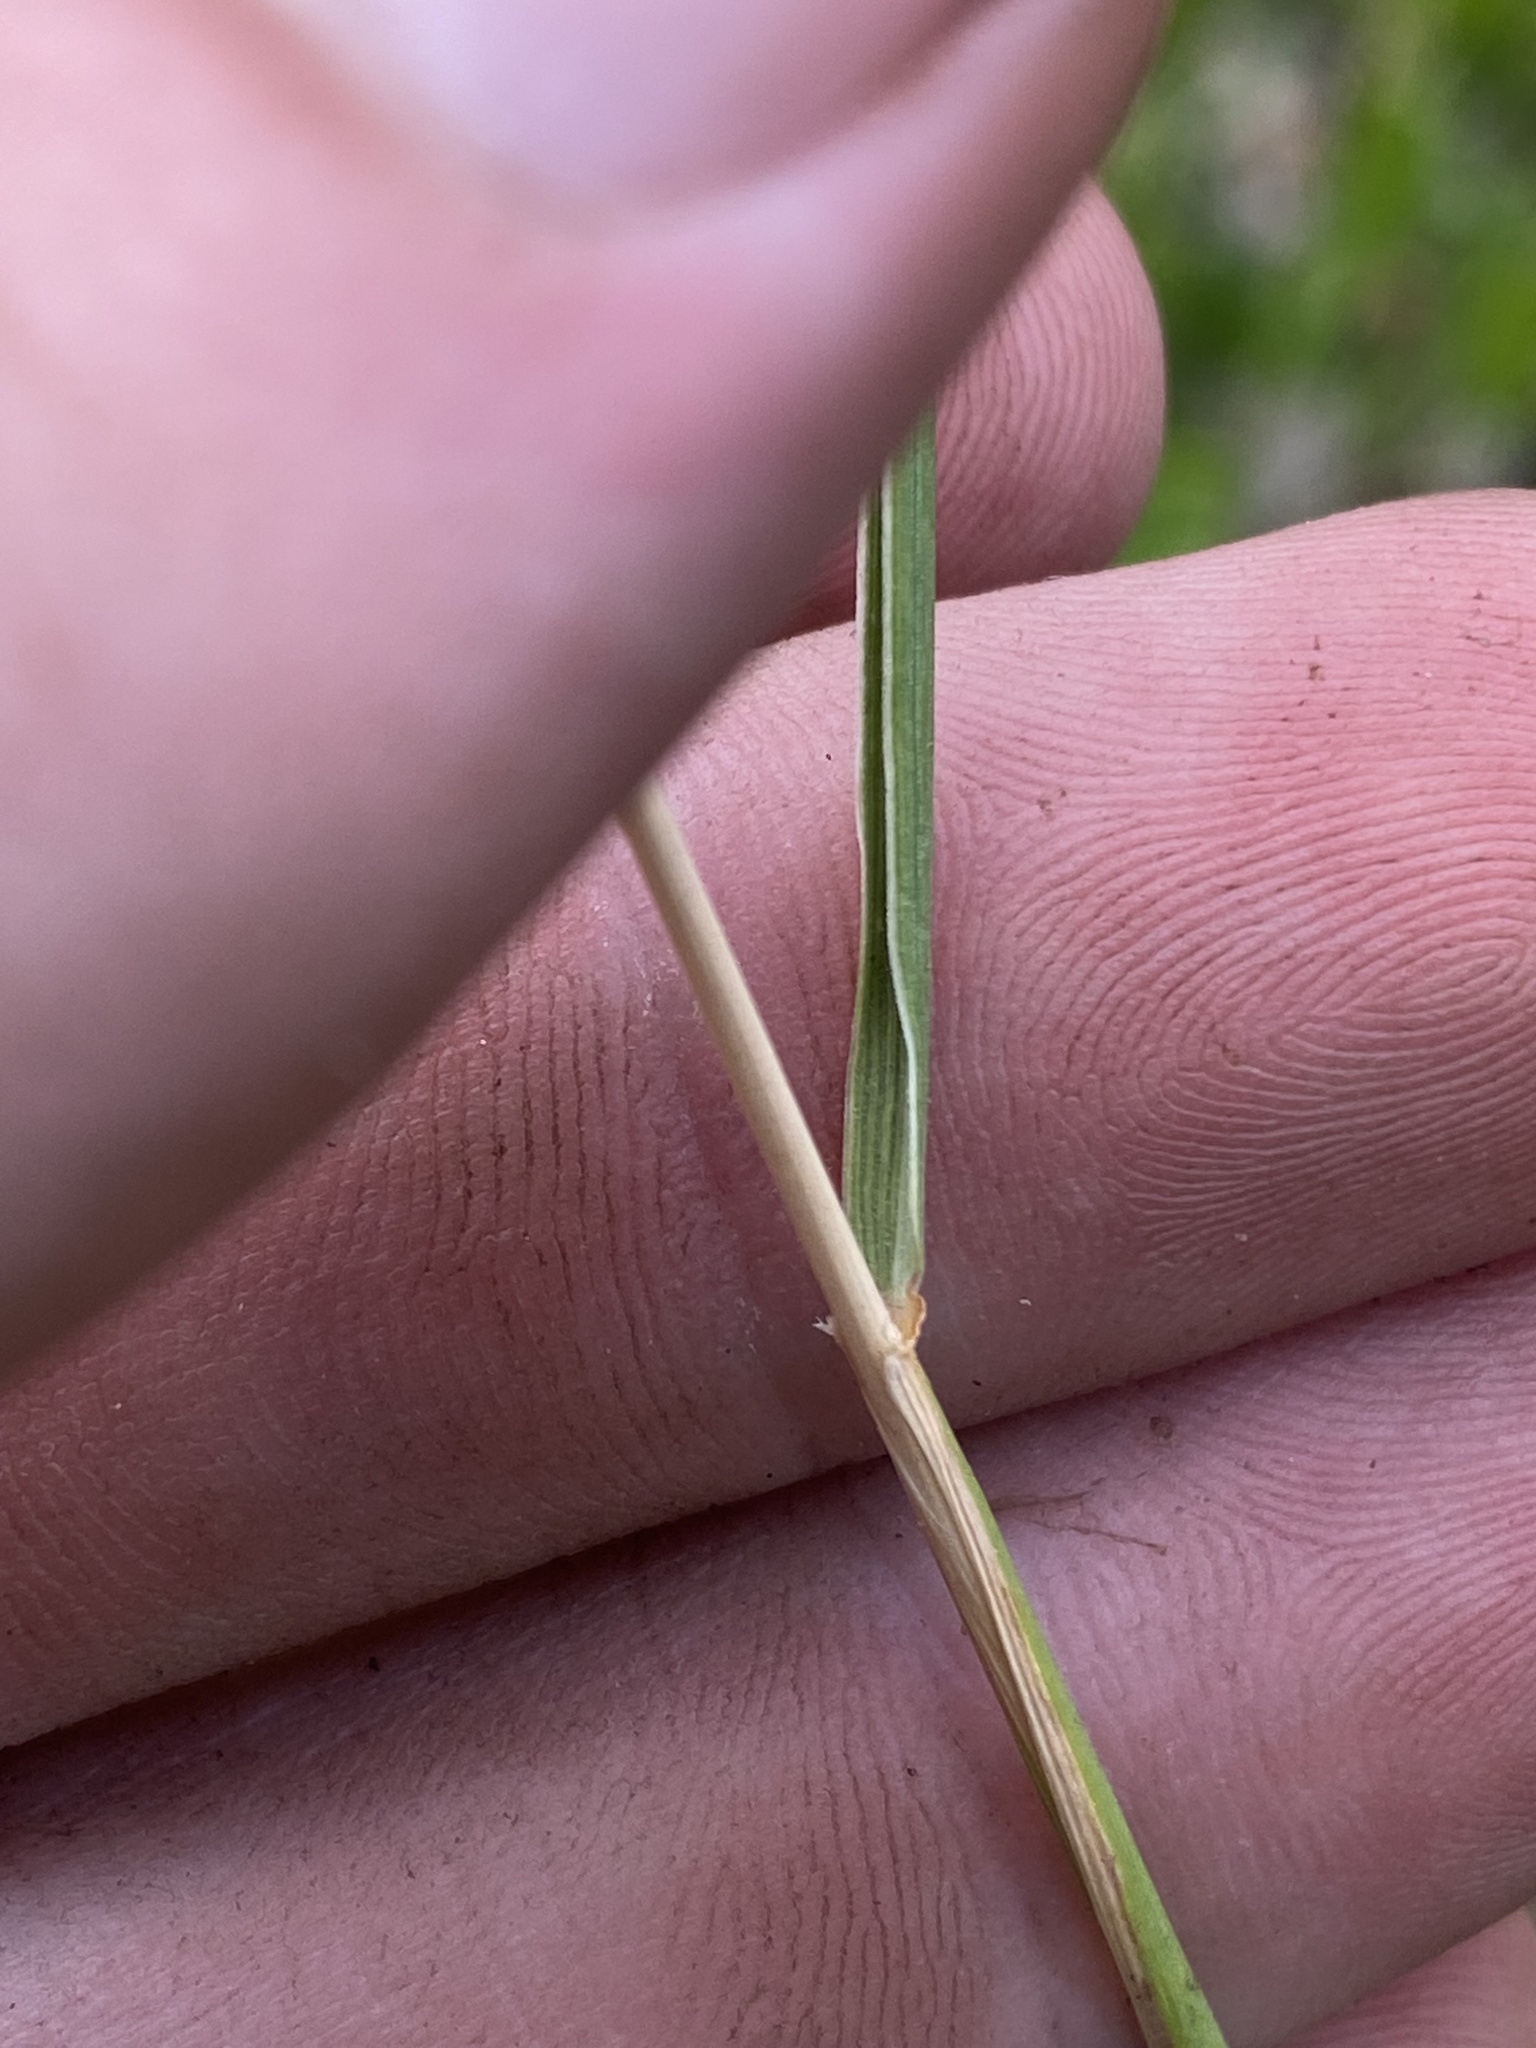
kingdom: Plantae
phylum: Tracheophyta
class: Liliopsida
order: Poales
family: Poaceae
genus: Elymus
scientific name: Elymus elymoides
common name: Bottlebrush squirreltail
